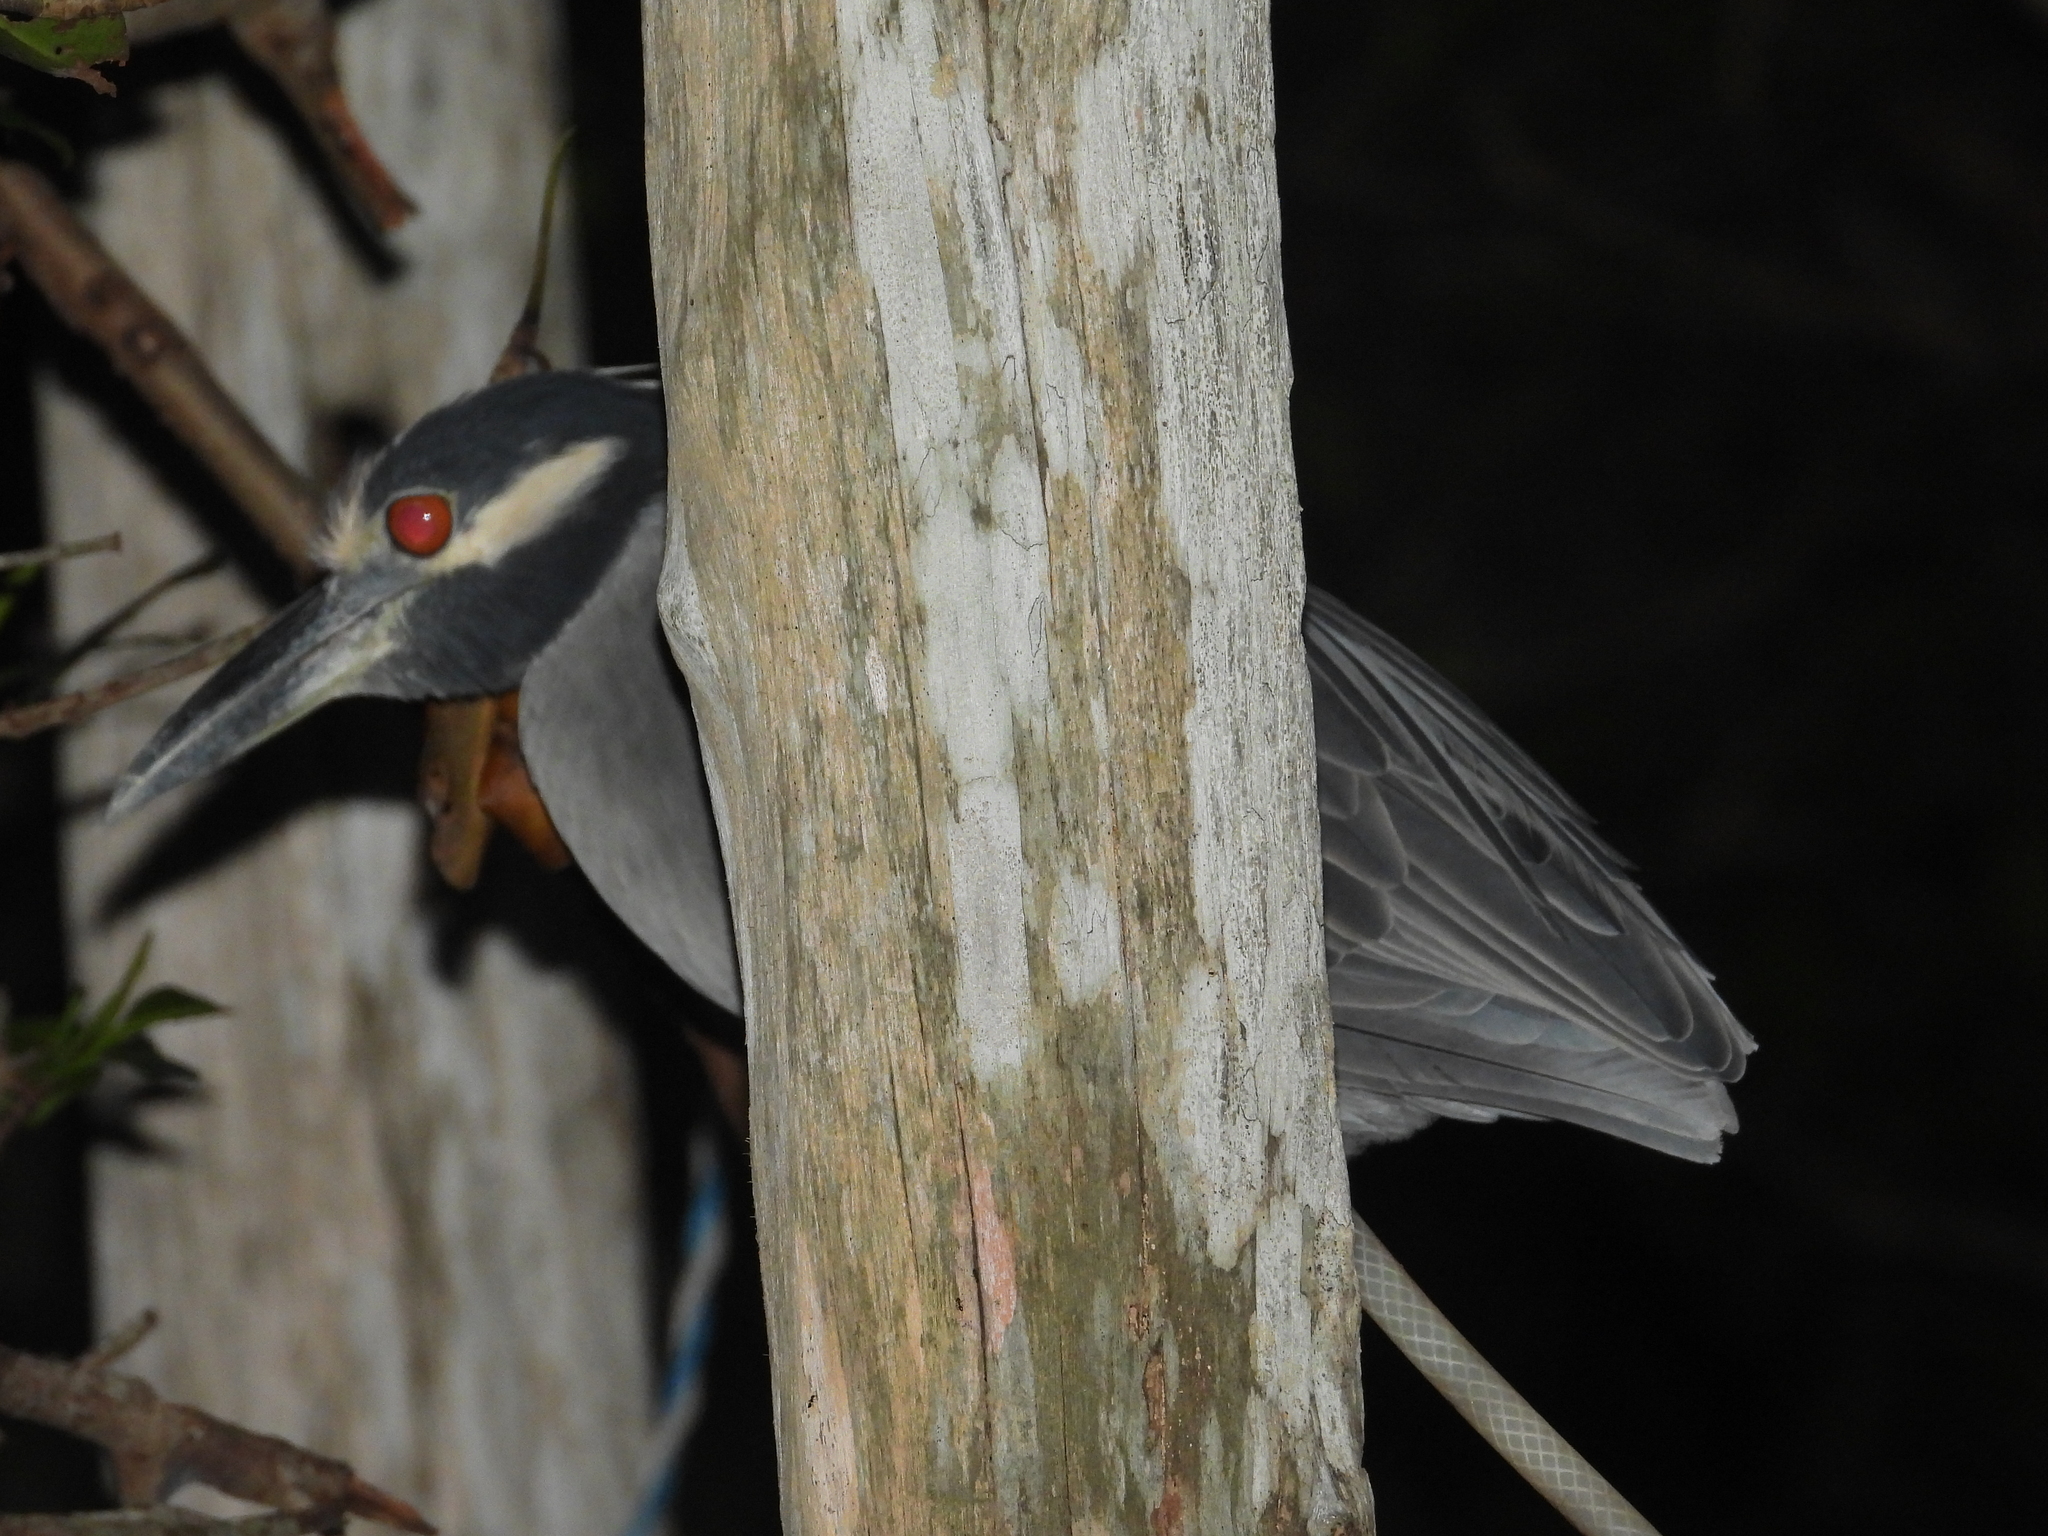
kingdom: Animalia
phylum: Chordata
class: Aves
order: Pelecaniformes
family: Ardeidae
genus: Nyctanassa
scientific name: Nyctanassa violacea
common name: Yellow-crowned night heron
